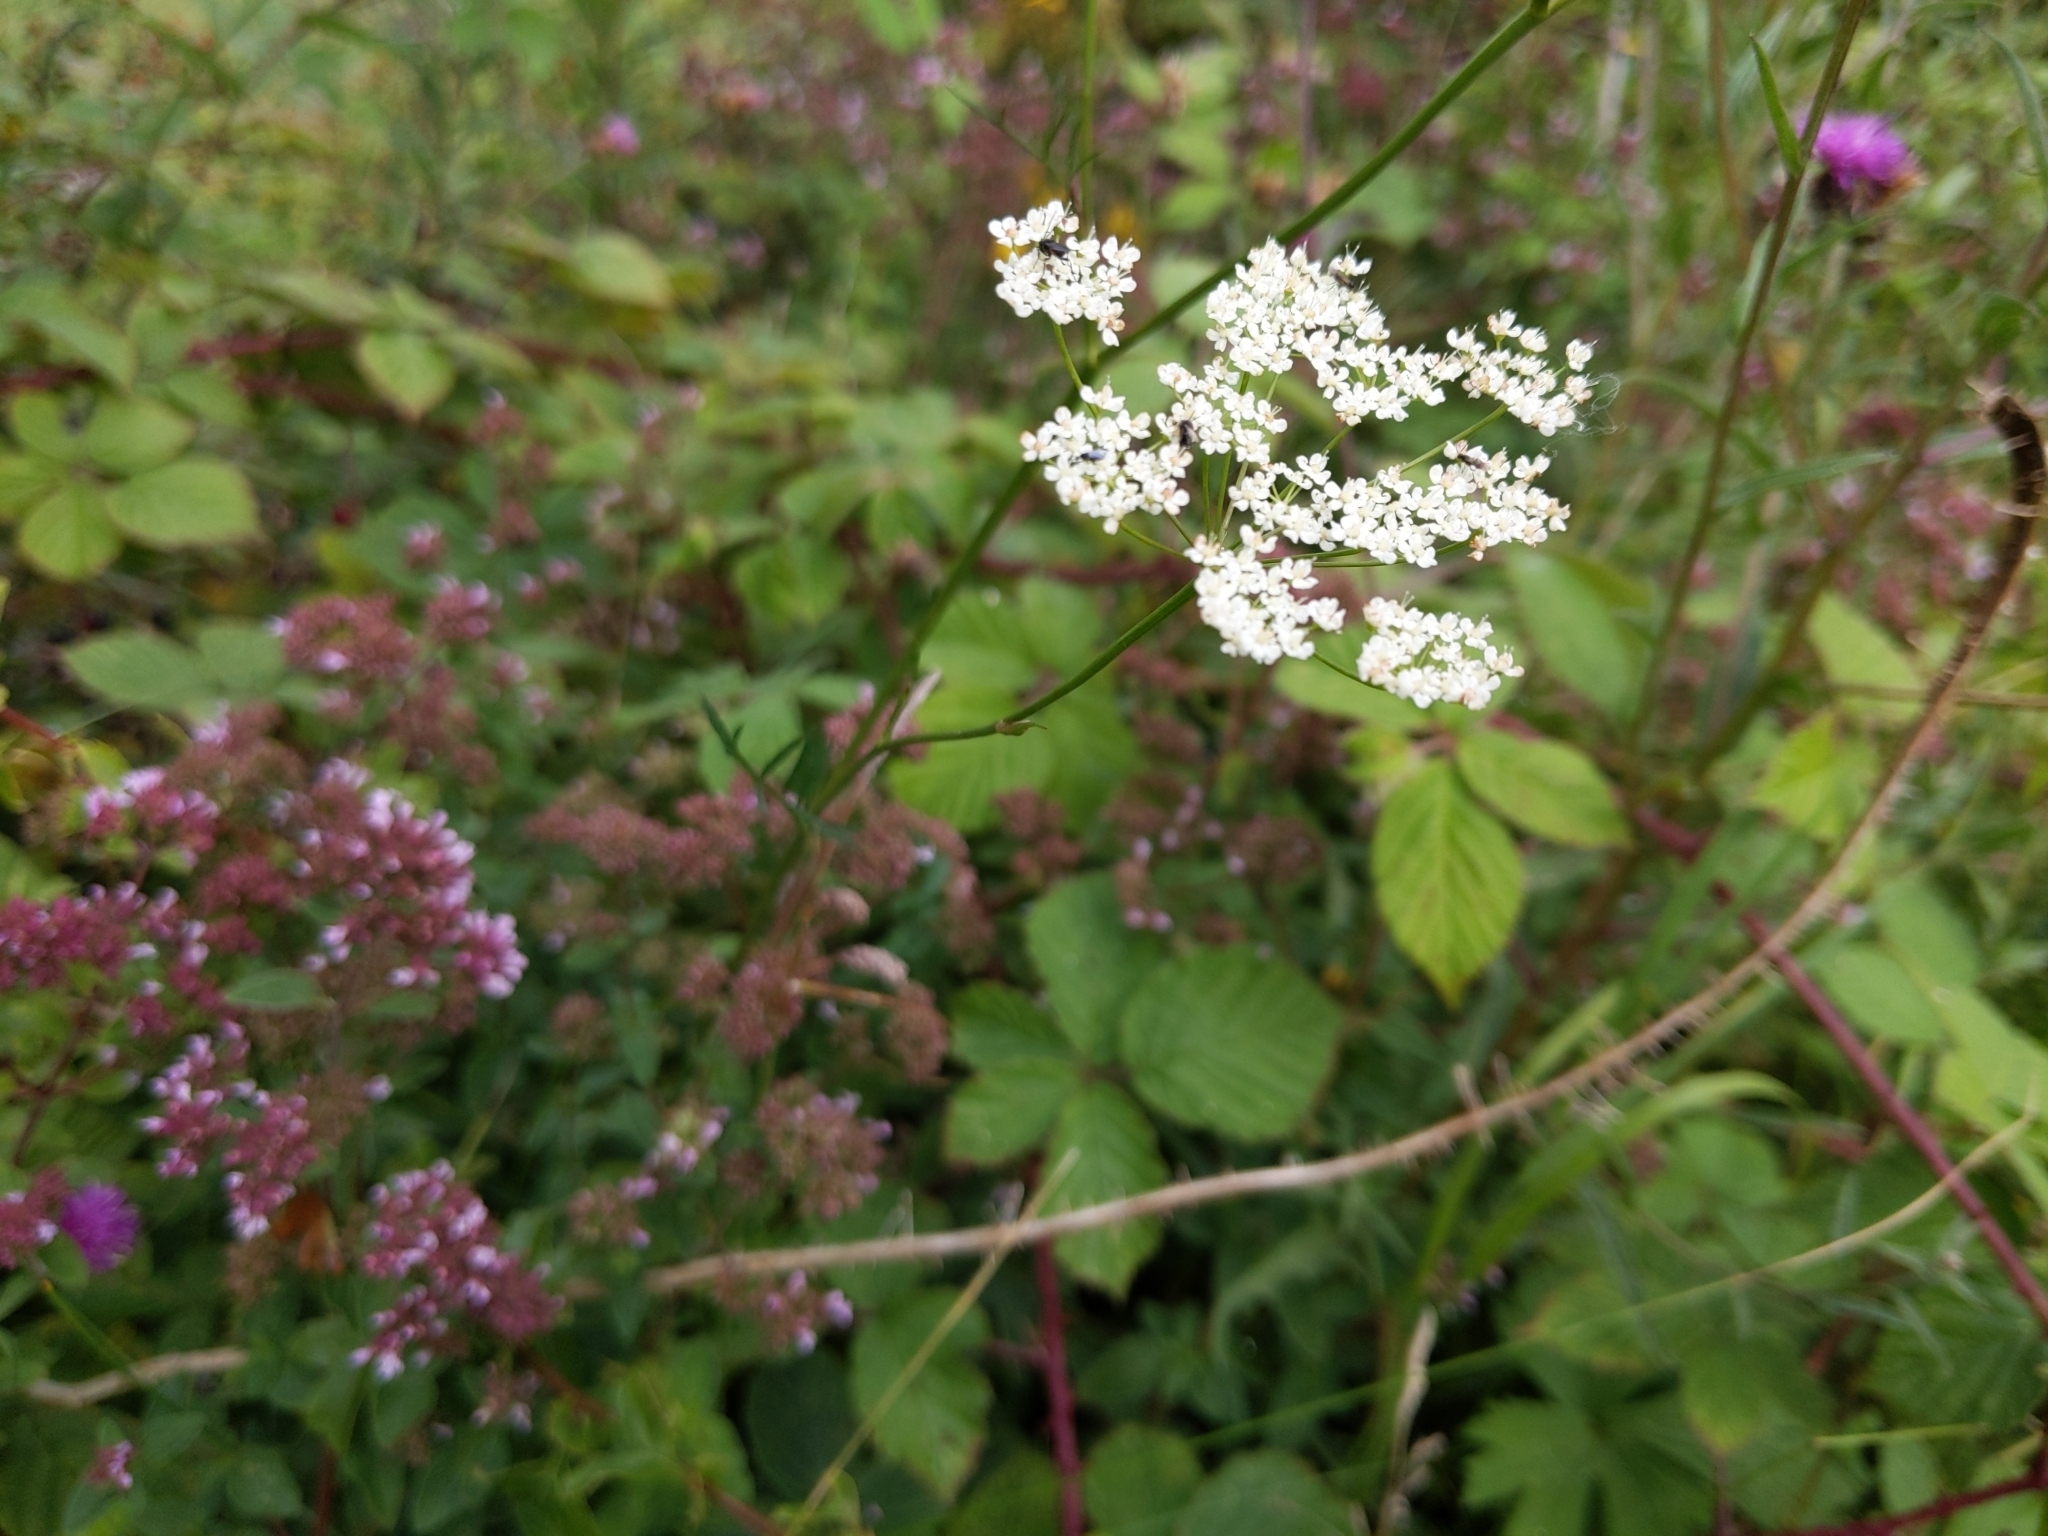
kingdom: Plantae
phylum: Tracheophyta
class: Magnoliopsida
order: Apiales
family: Apiaceae
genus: Pimpinella
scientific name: Pimpinella saxifraga
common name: Burnet-saxifrage
